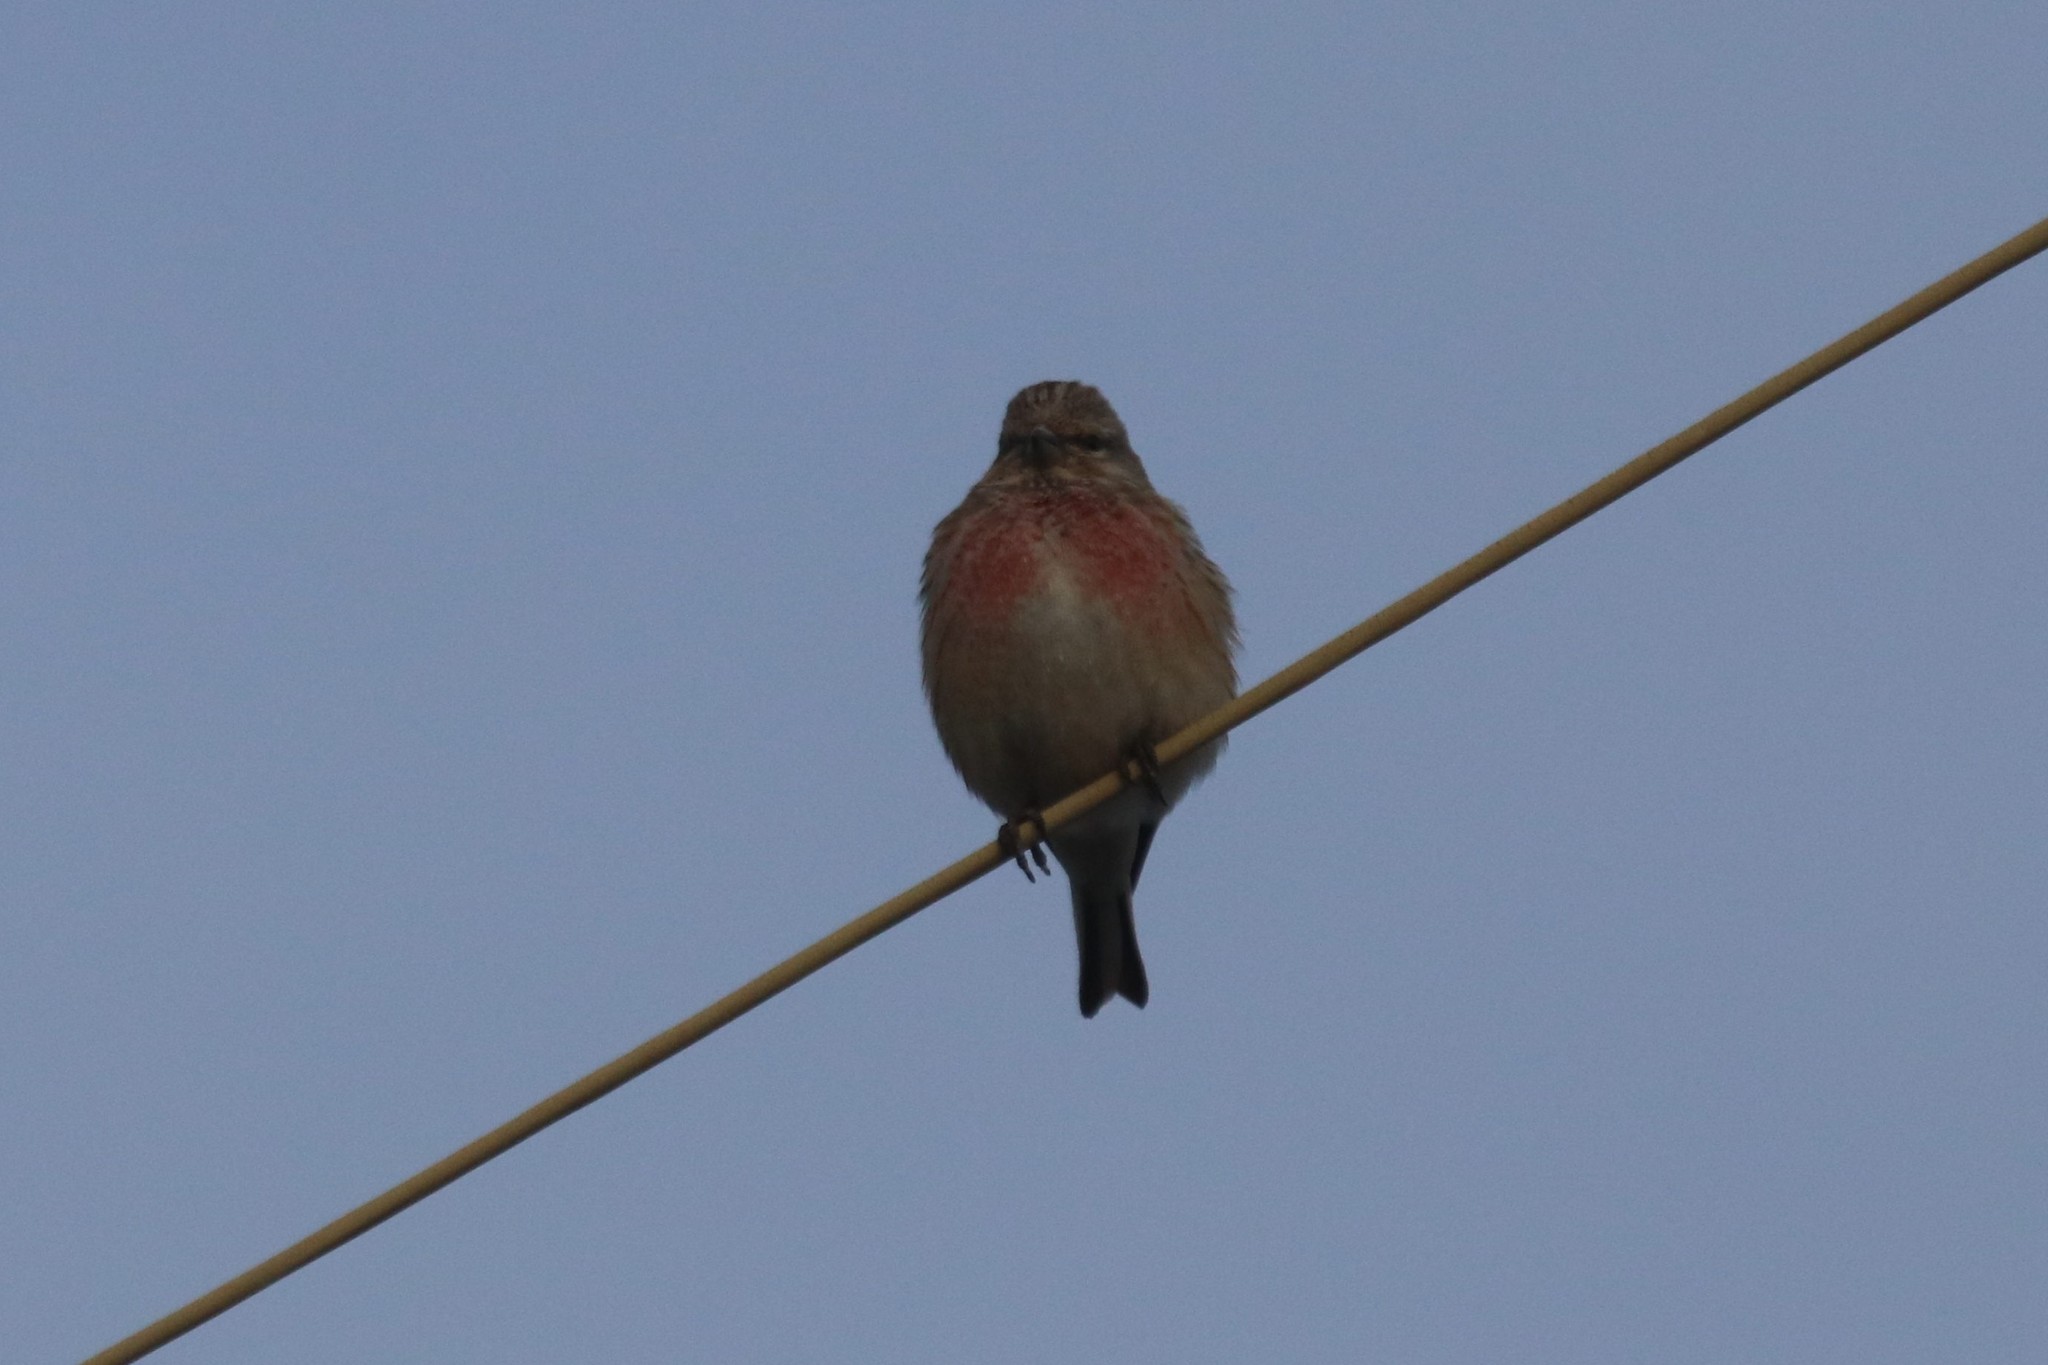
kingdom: Animalia
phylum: Chordata
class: Aves
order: Passeriformes
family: Fringillidae
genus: Linaria
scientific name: Linaria cannabina
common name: Common linnet
